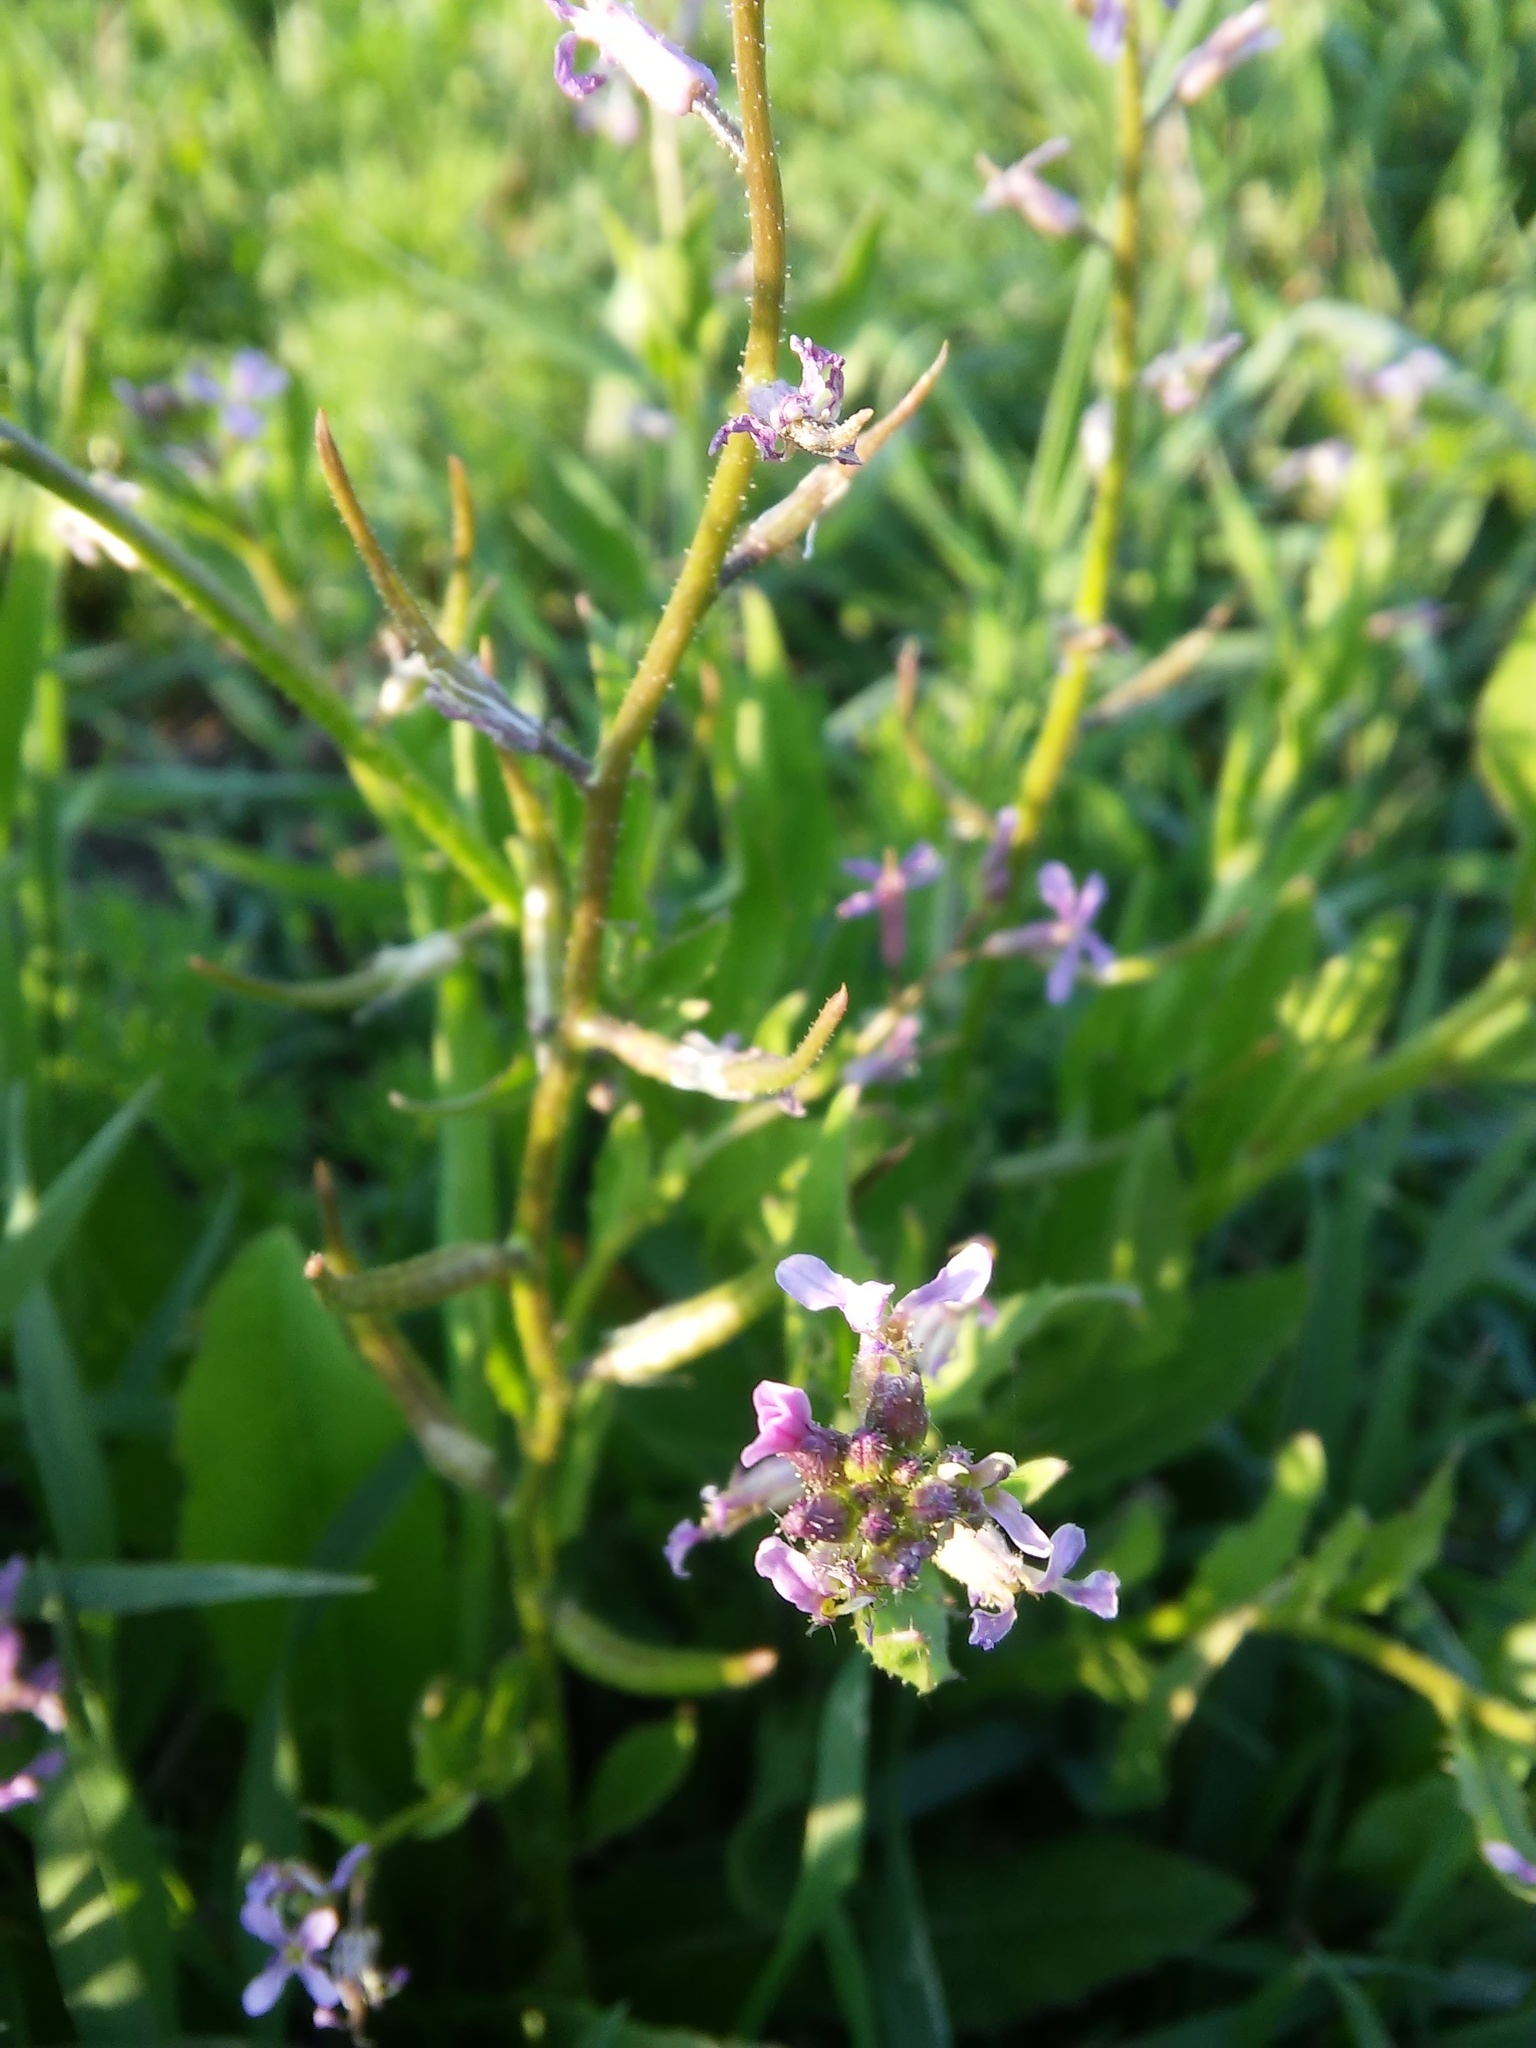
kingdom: Plantae
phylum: Tracheophyta
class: Magnoliopsida
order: Brassicales
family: Brassicaceae
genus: Chorispora
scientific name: Chorispora tenella
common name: Crossflower
